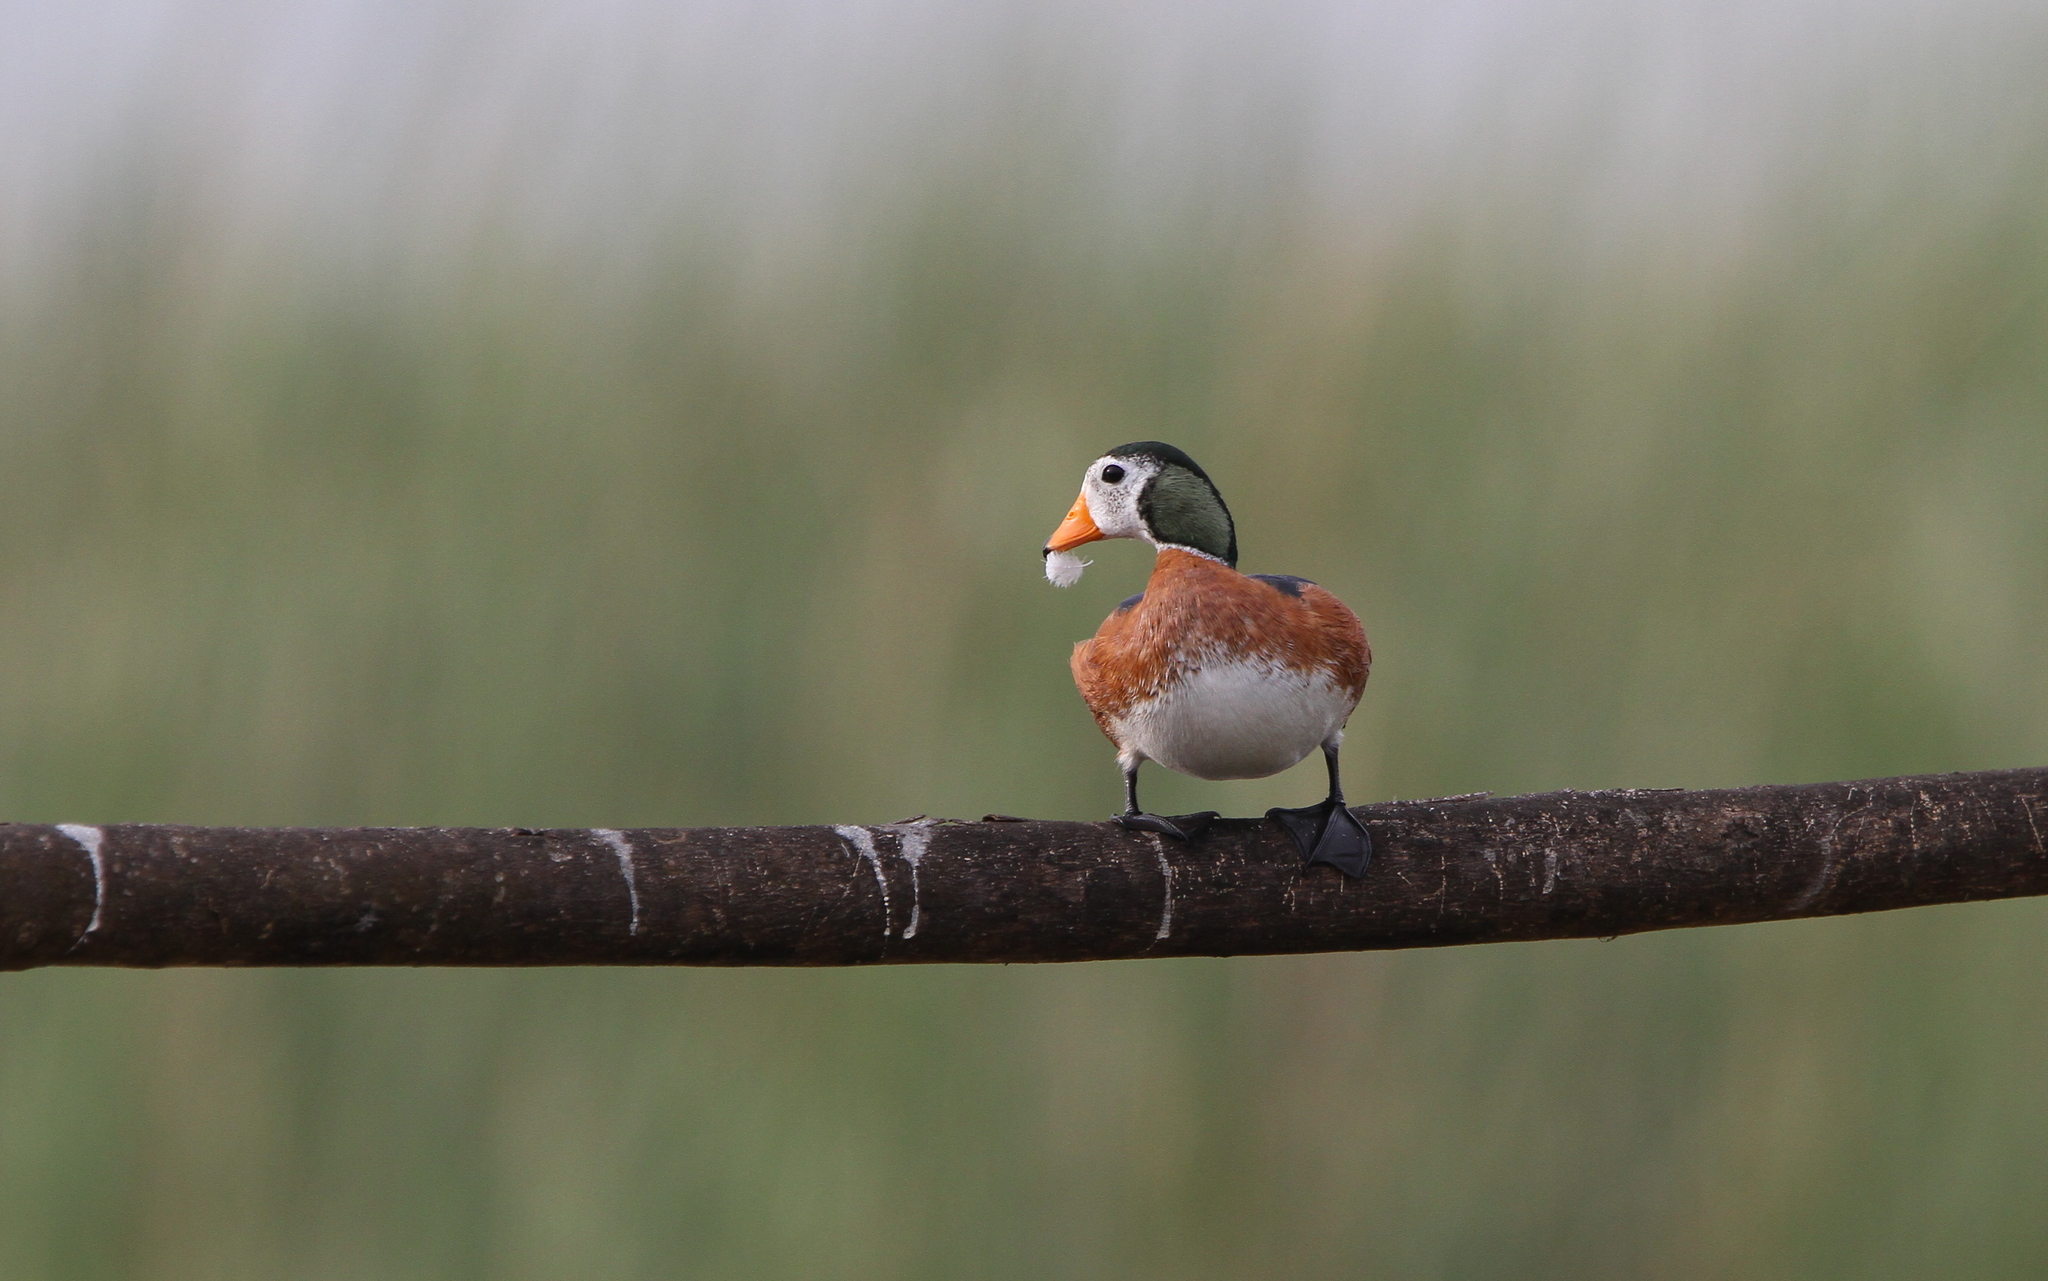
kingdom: Animalia
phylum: Chordata
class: Aves
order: Anseriformes
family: Anatidae
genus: Nettapus
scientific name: Nettapus auritus
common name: African pygmy-goose
